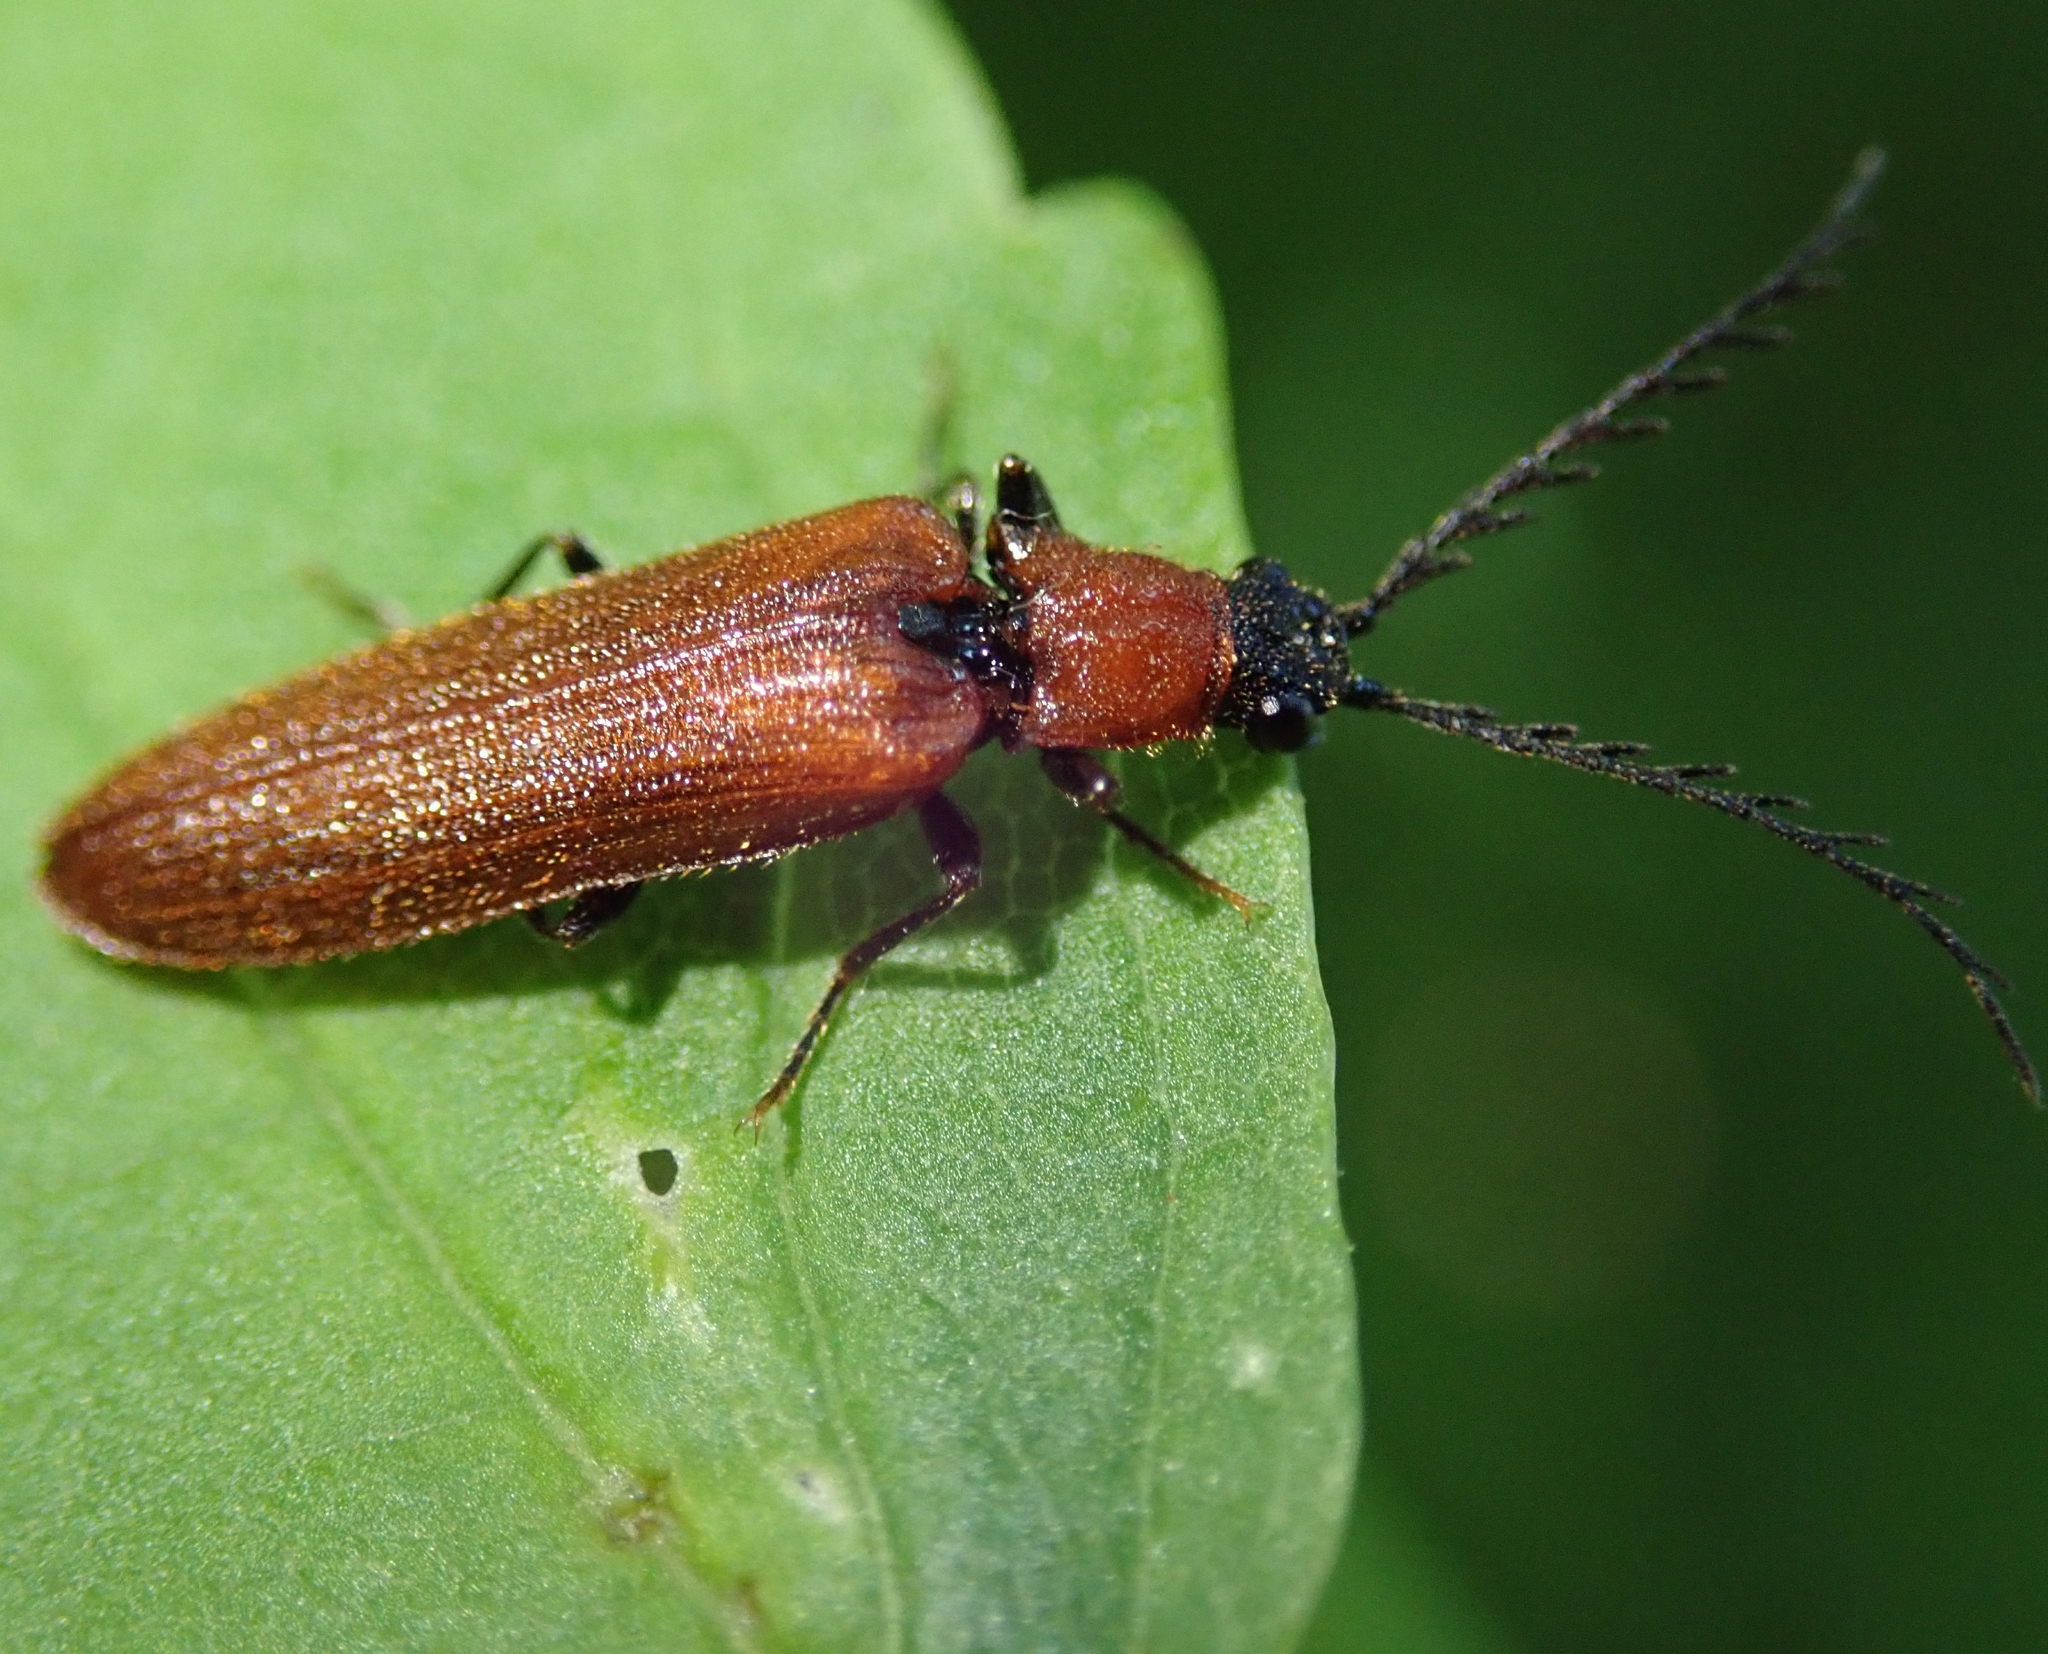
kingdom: Animalia
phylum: Arthropoda
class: Insecta
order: Coleoptera
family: Elateridae
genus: Denticollis
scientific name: Denticollis rubens
